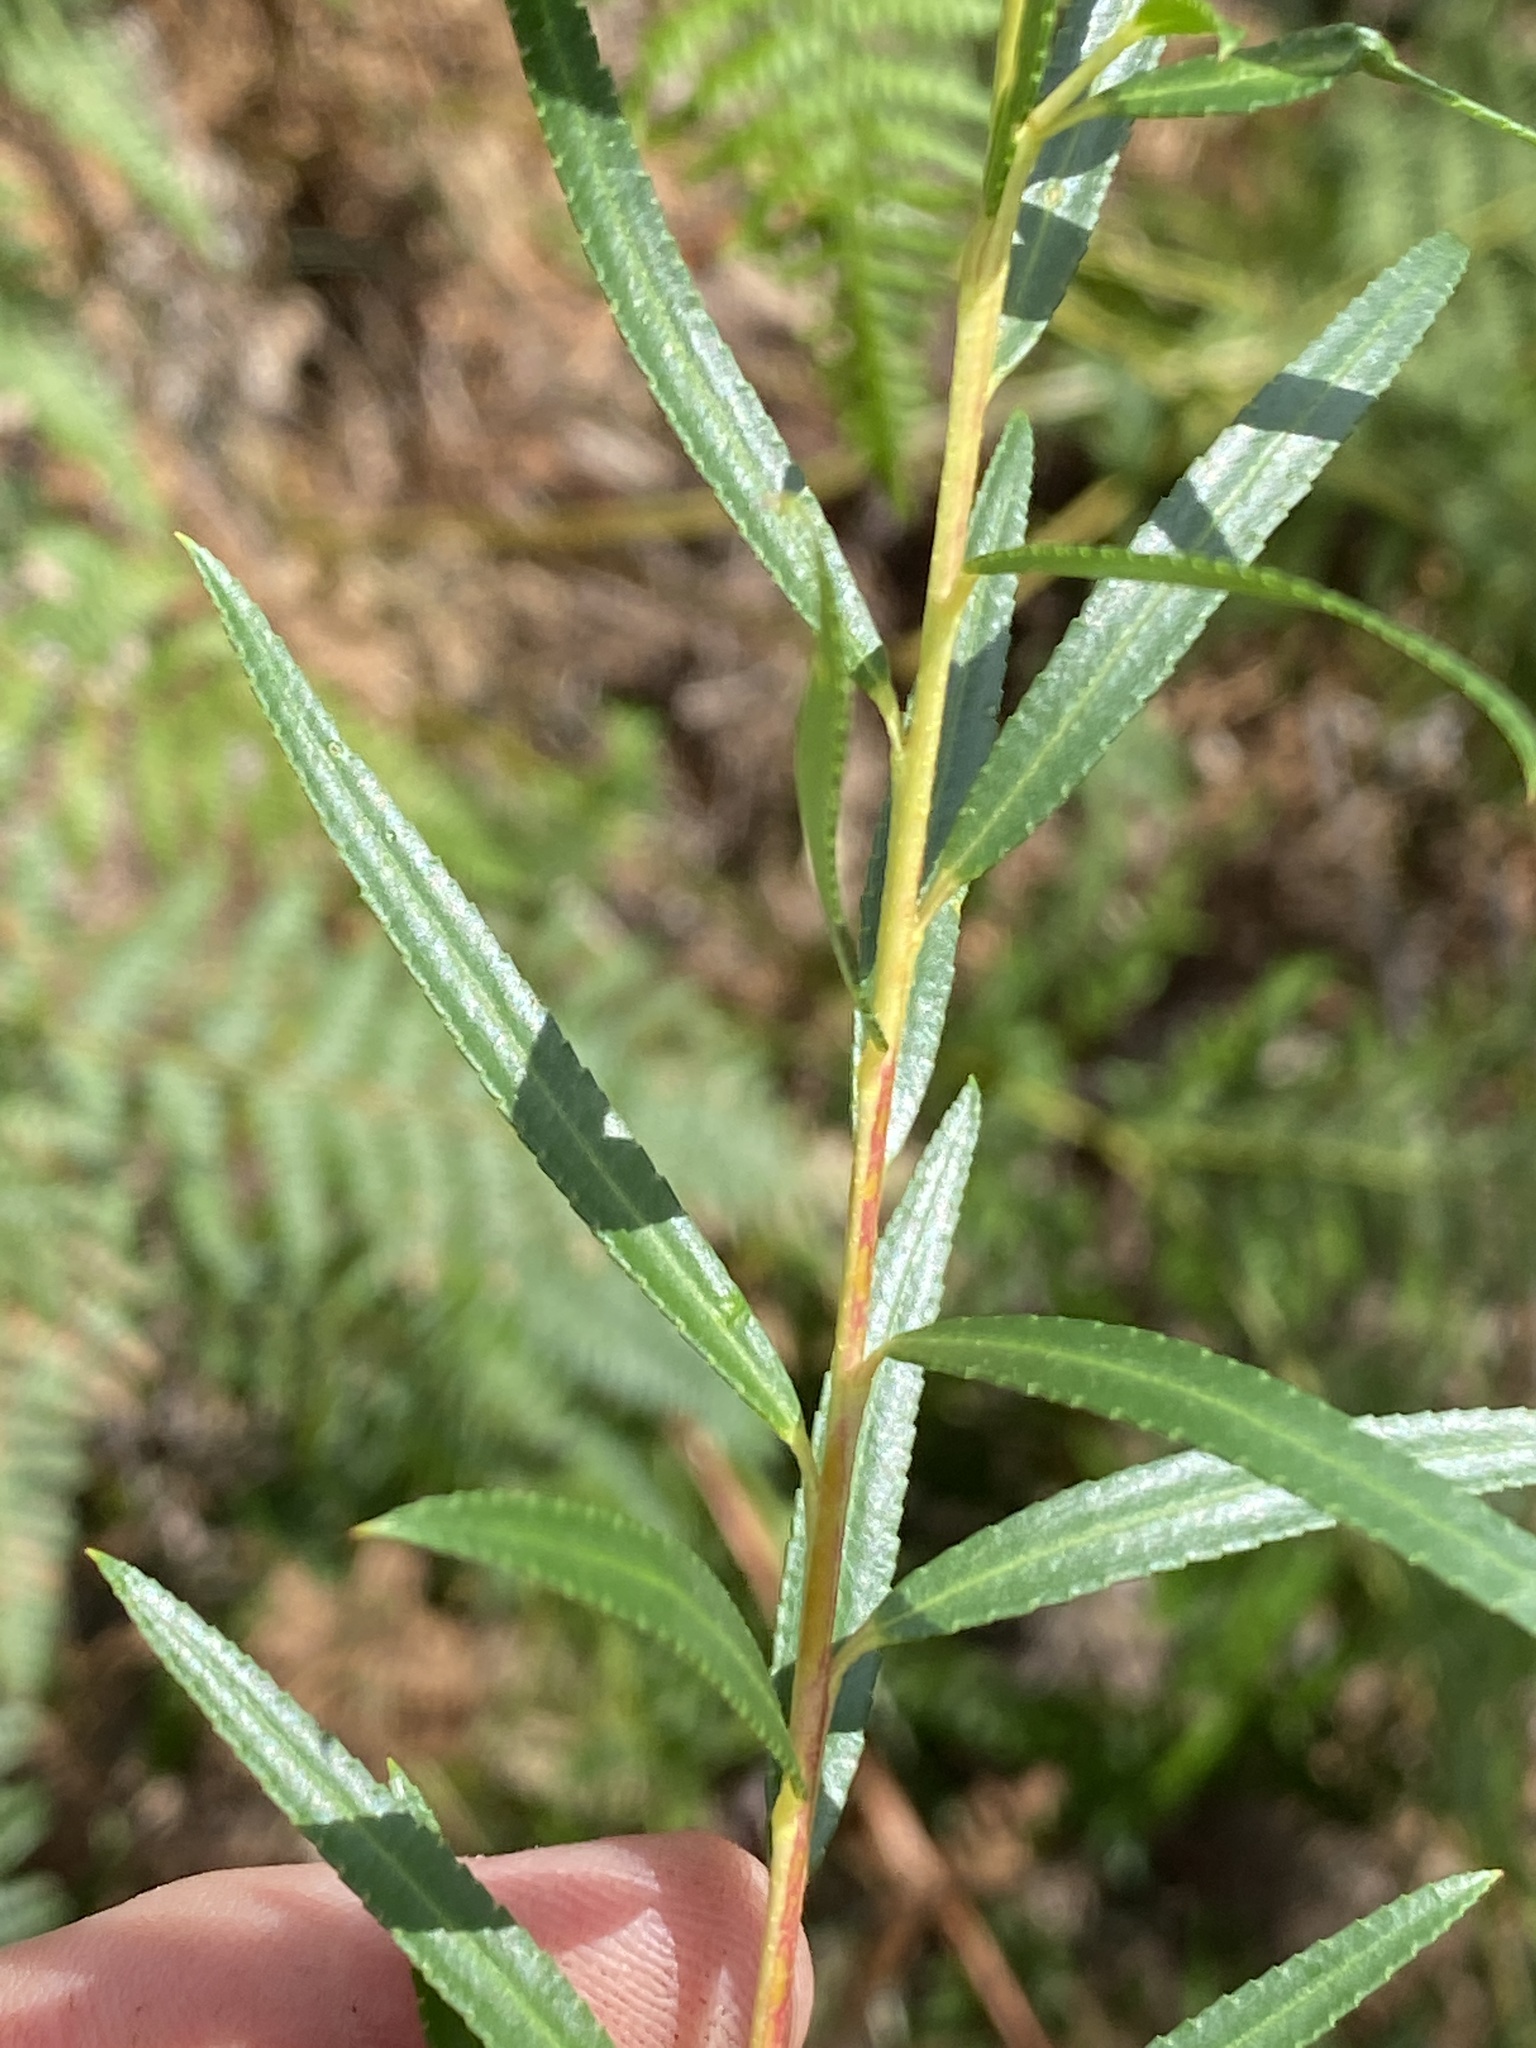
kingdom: Plantae
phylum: Tracheophyta
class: Magnoliopsida
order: Sapindales
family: Rutaceae
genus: Empleurum
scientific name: Empleurum unicapsulare
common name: False buchu
